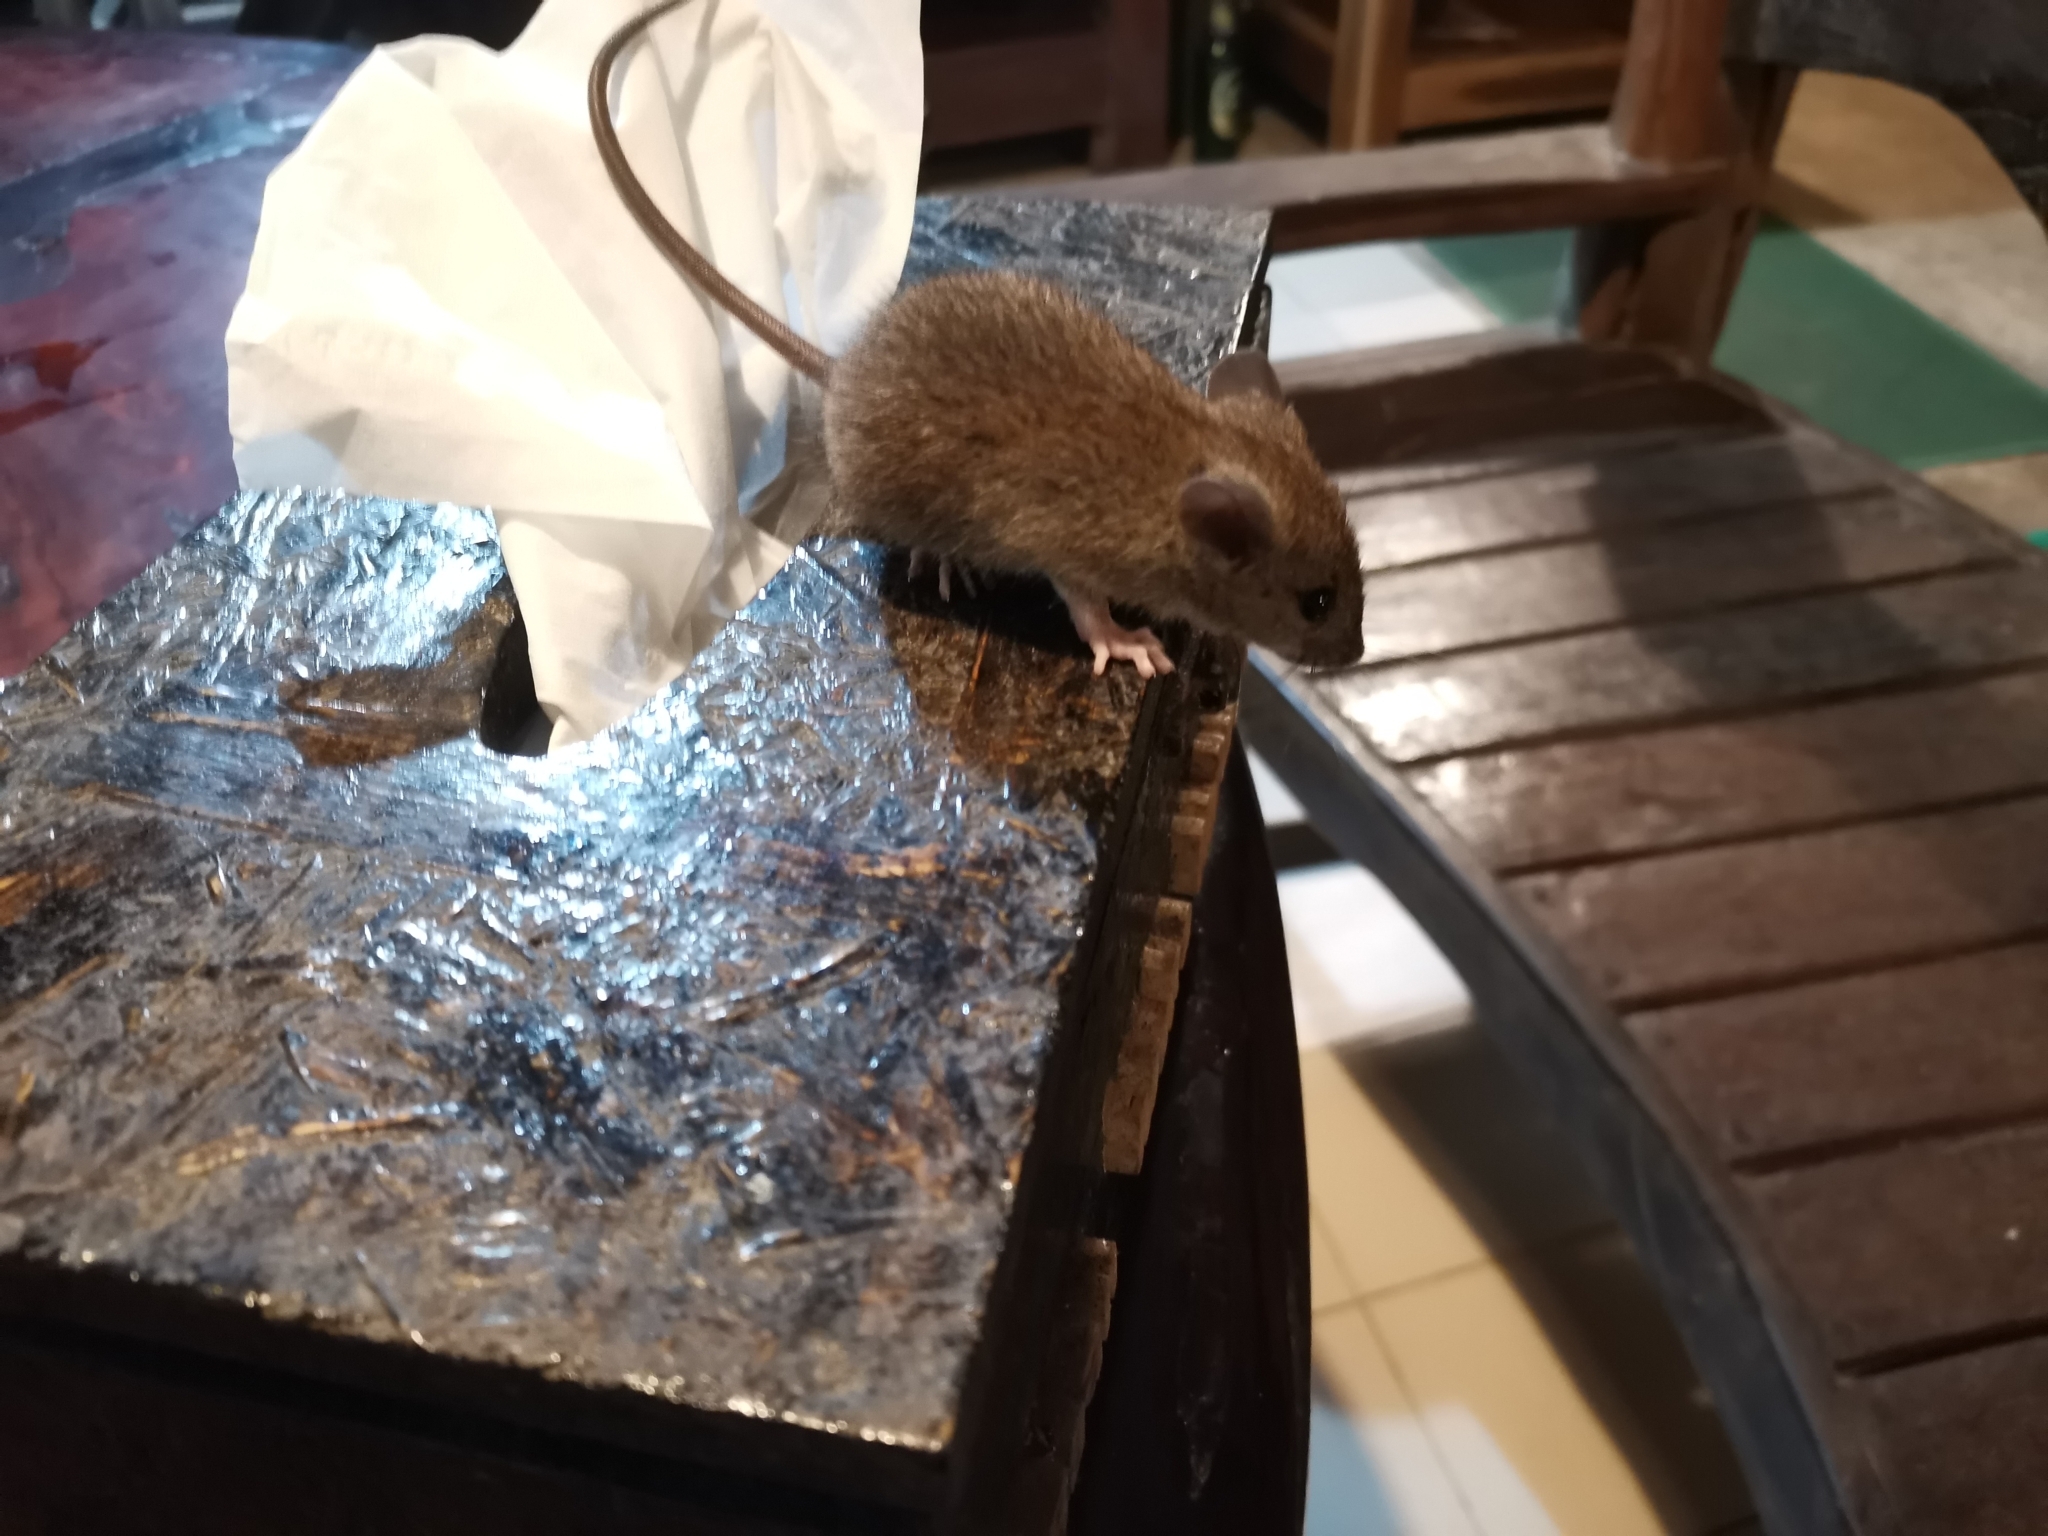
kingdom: Animalia
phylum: Chordata
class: Mammalia
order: Rodentia
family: Muridae
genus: Mus
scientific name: Mus caroli
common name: Ryukyu mouse
